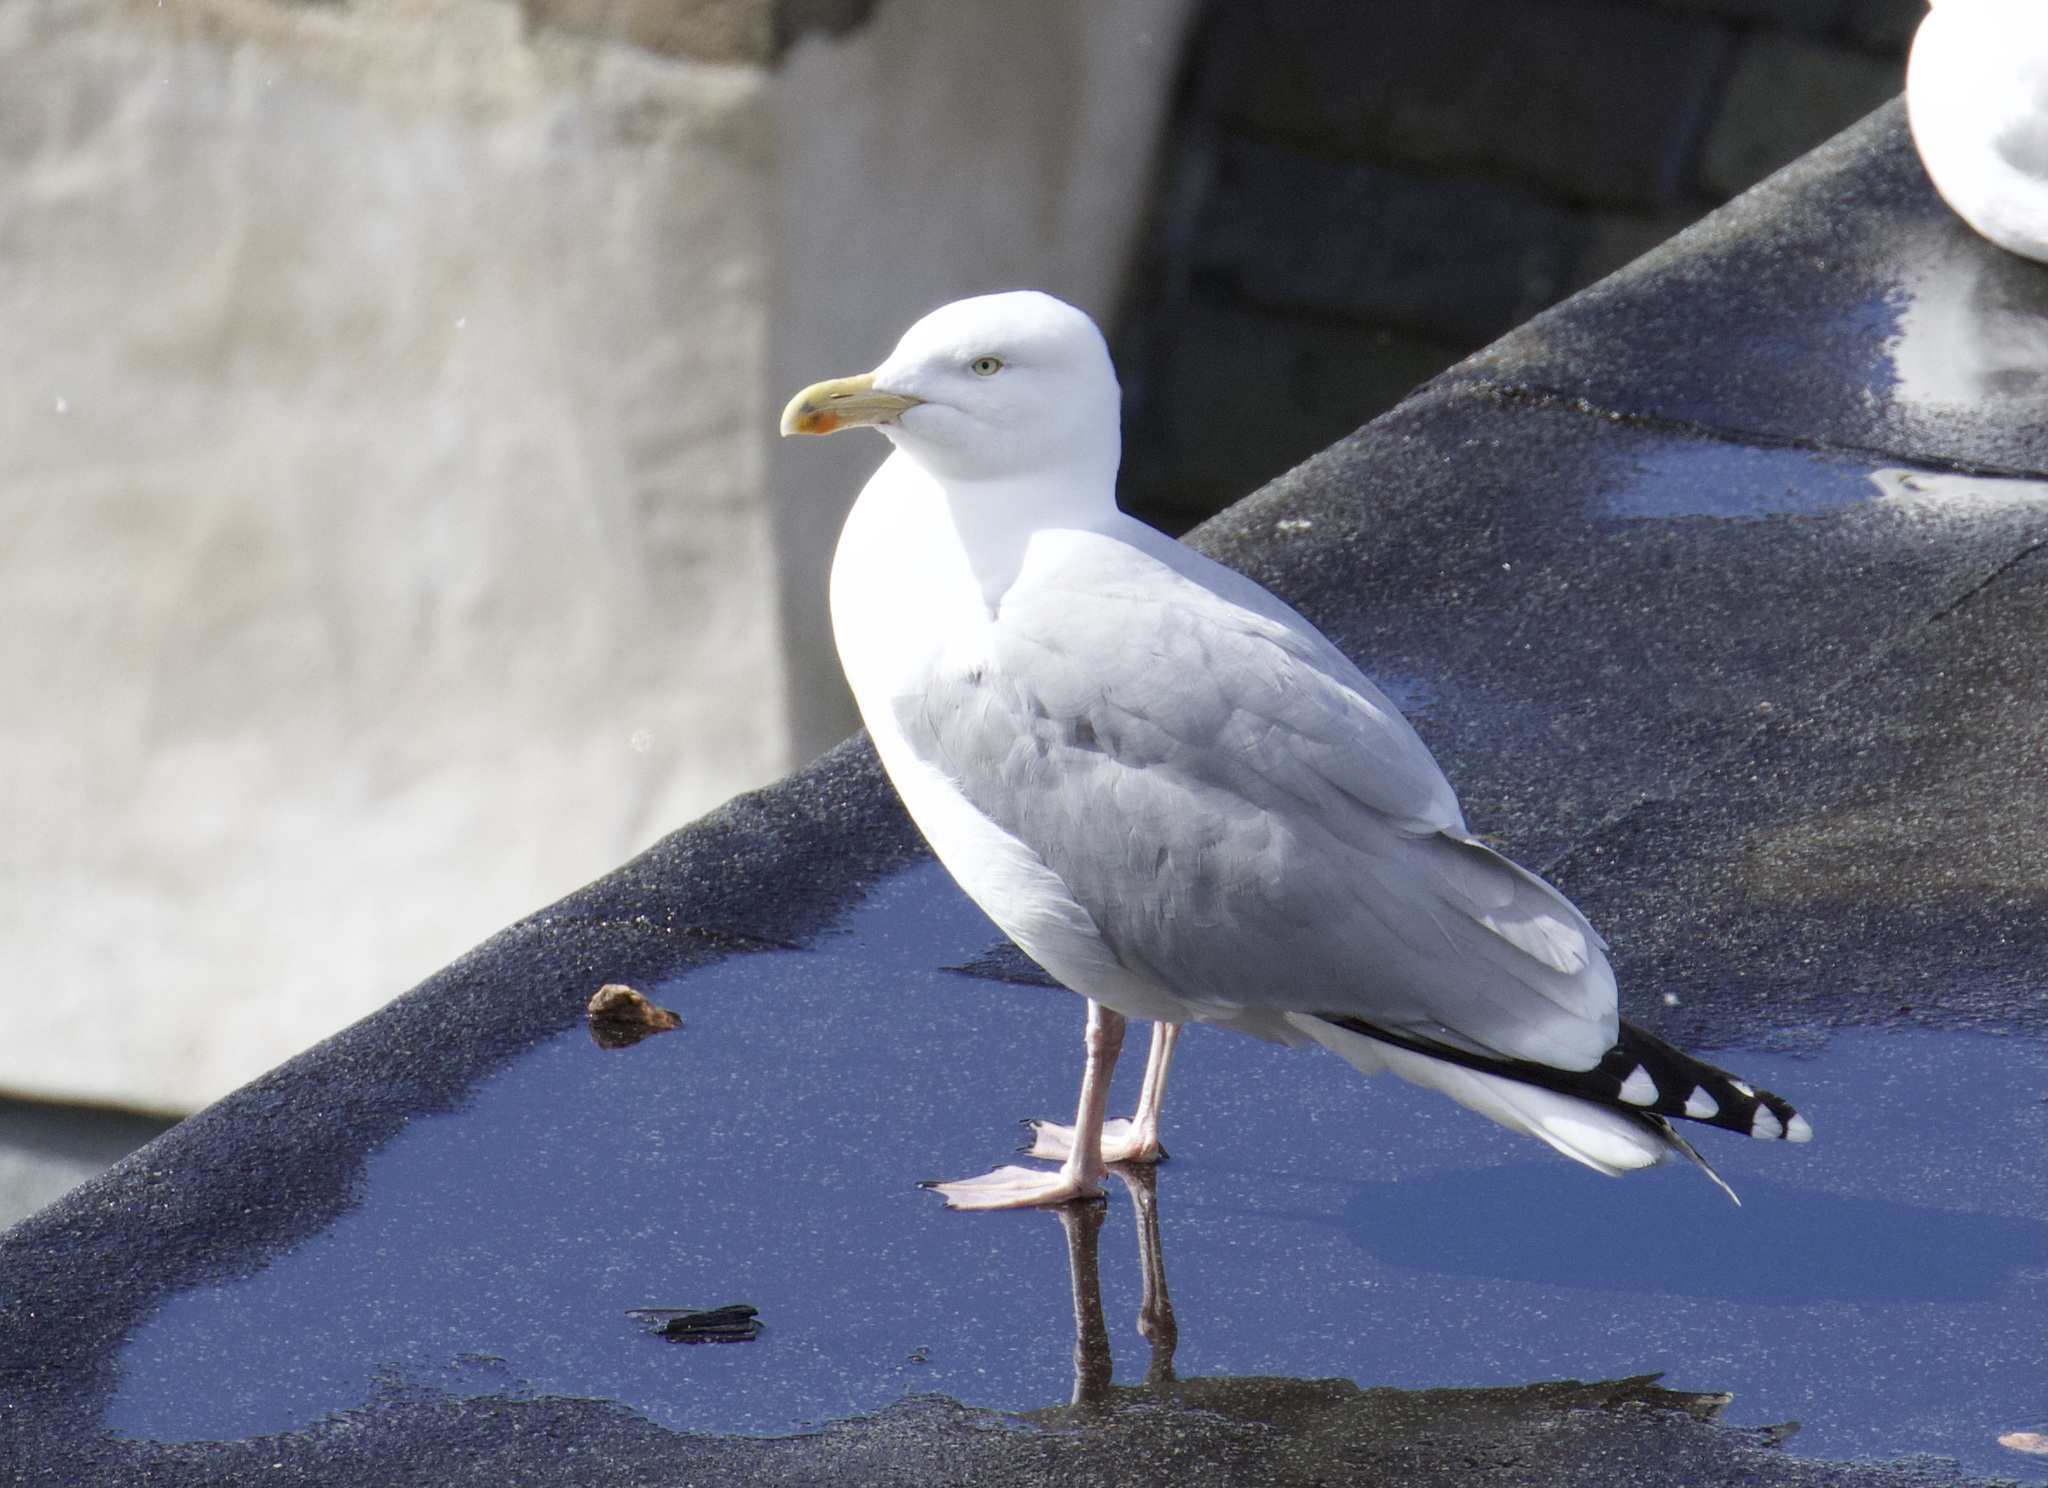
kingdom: Animalia
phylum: Chordata
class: Aves
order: Charadriiformes
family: Laridae
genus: Larus
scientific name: Larus argentatus
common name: Herring gull
